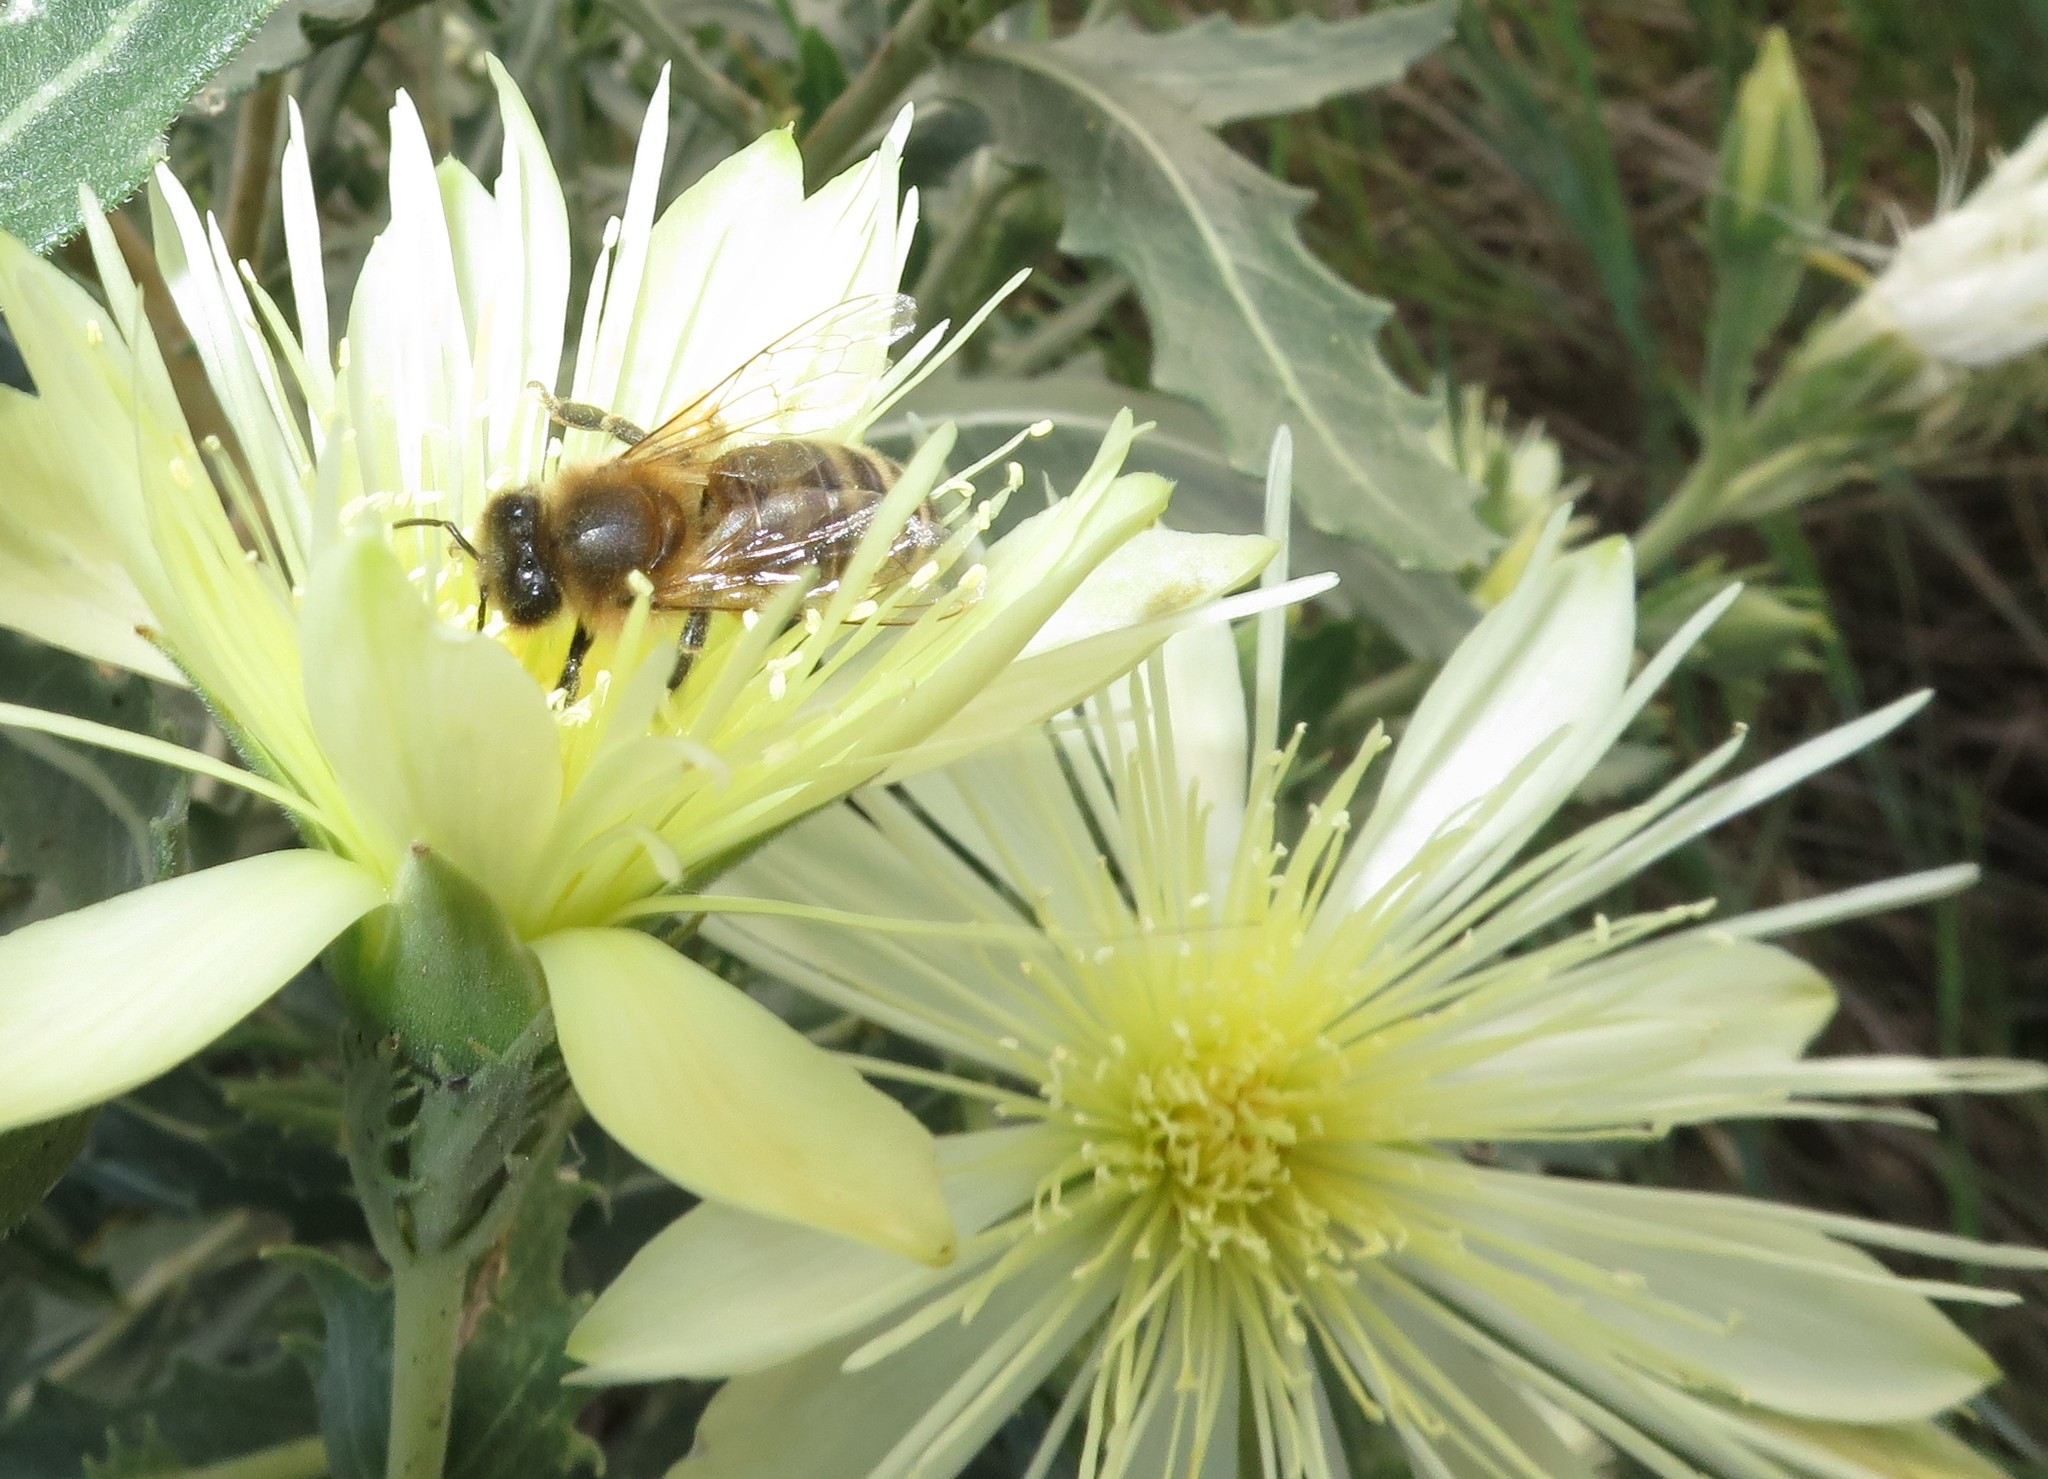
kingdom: Animalia
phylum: Arthropoda
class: Insecta
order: Hymenoptera
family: Apidae
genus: Apis
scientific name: Apis mellifera
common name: Honey bee
